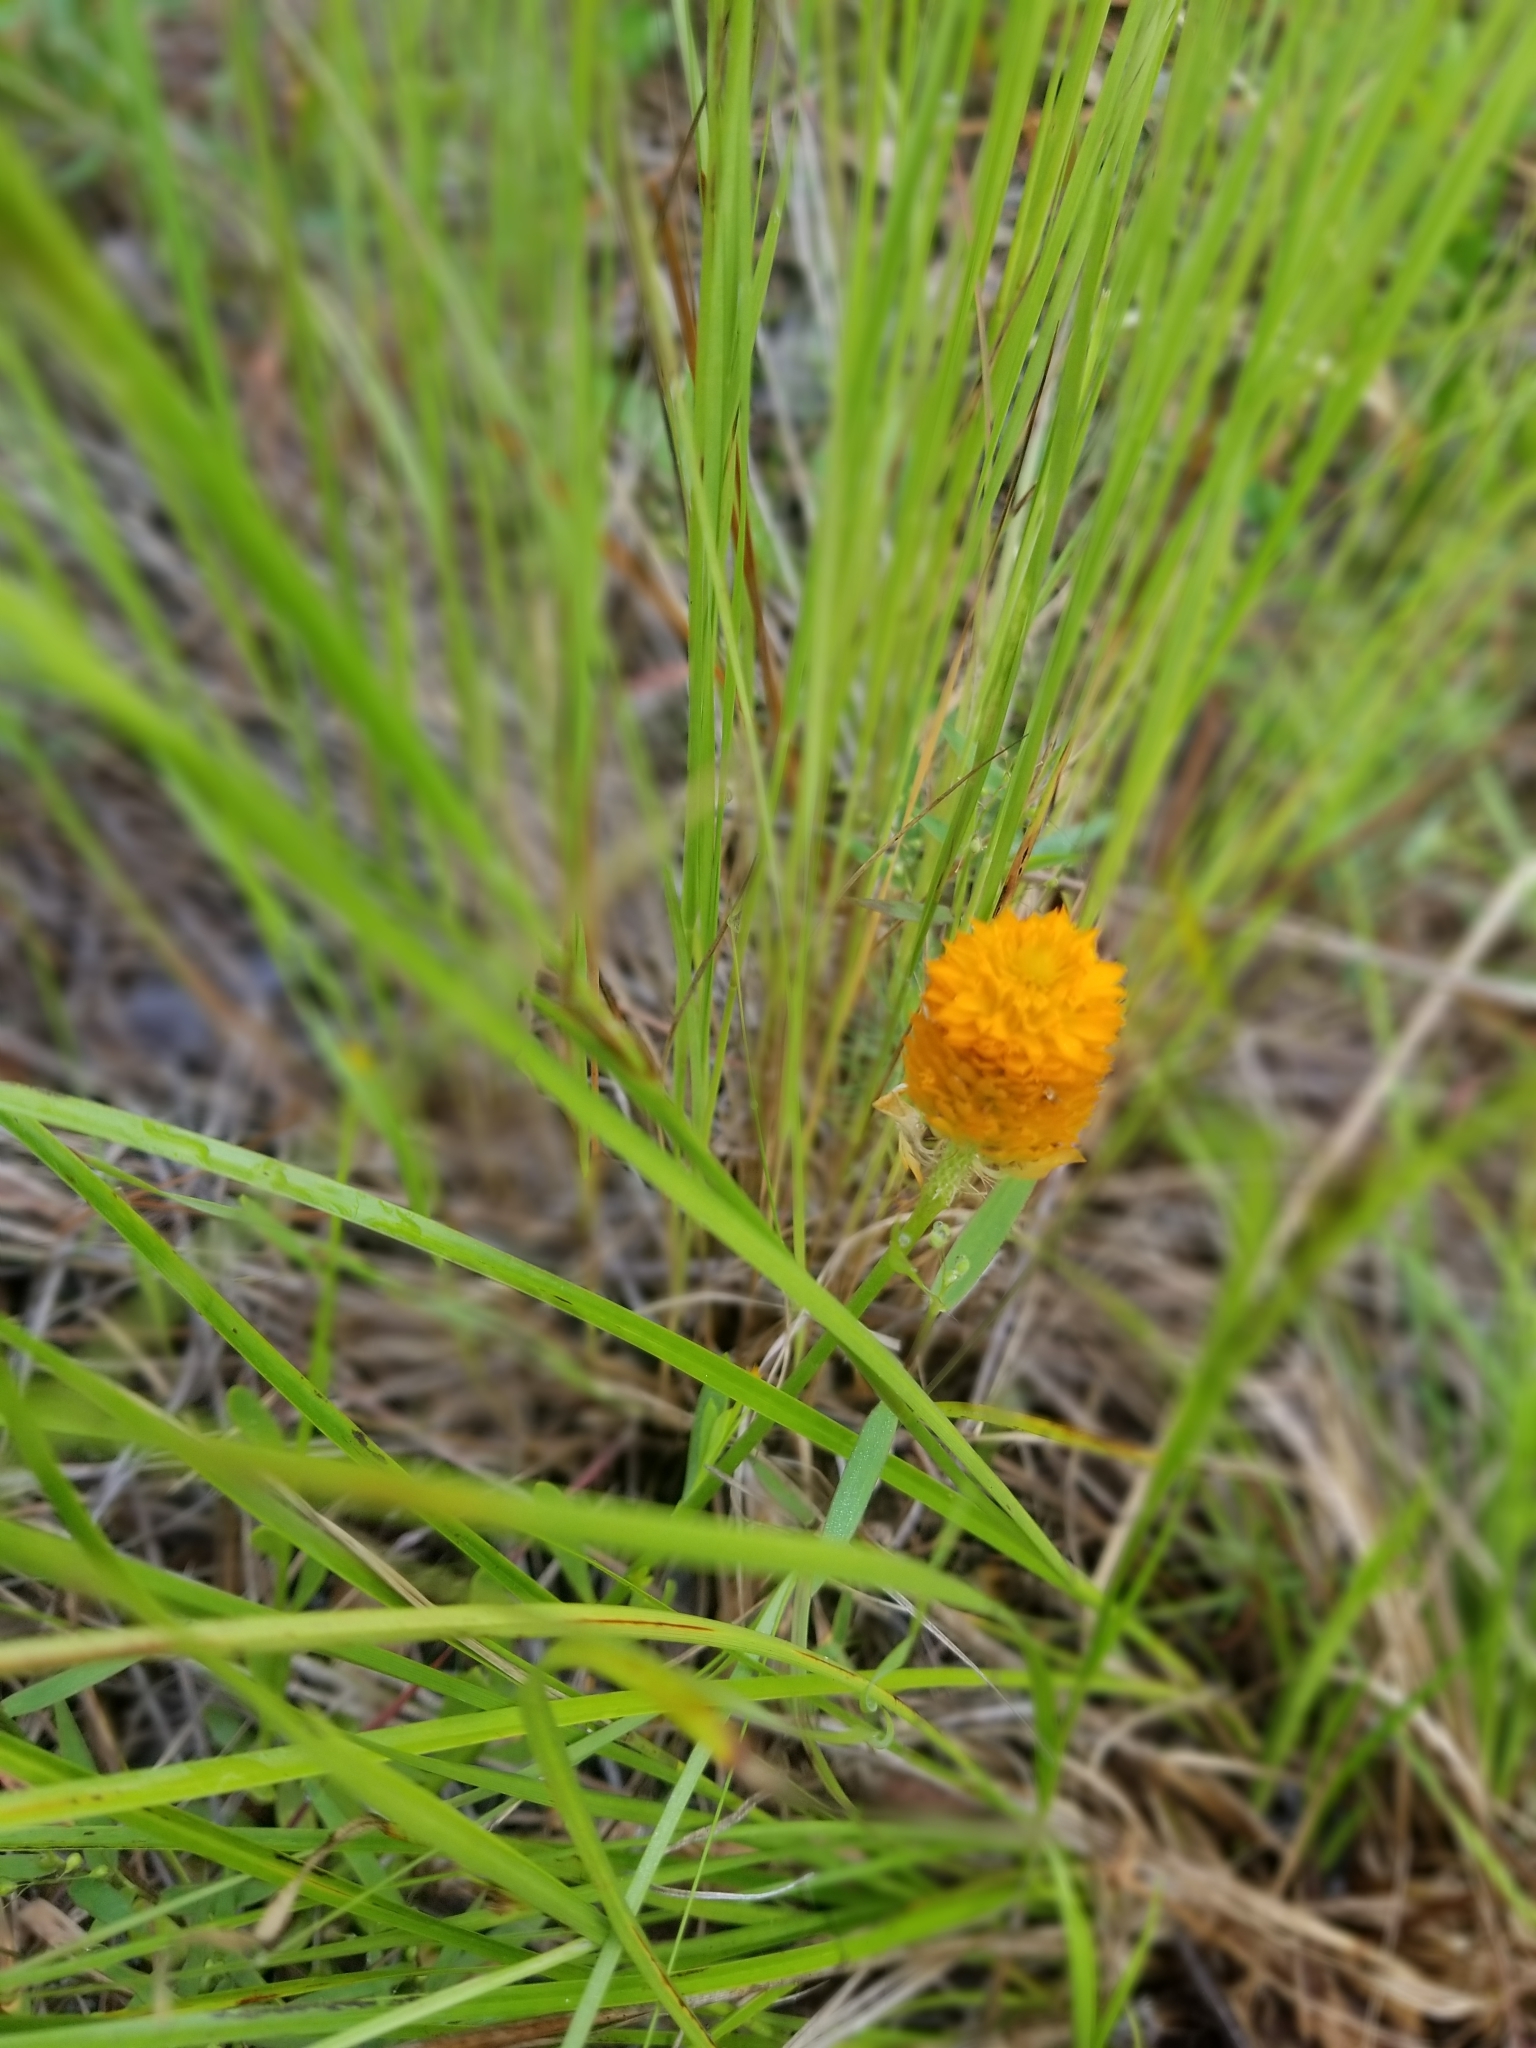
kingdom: Plantae
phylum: Tracheophyta
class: Magnoliopsida
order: Fabales
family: Polygalaceae
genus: Polygala
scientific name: Polygala lutea
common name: Orange milkwort
